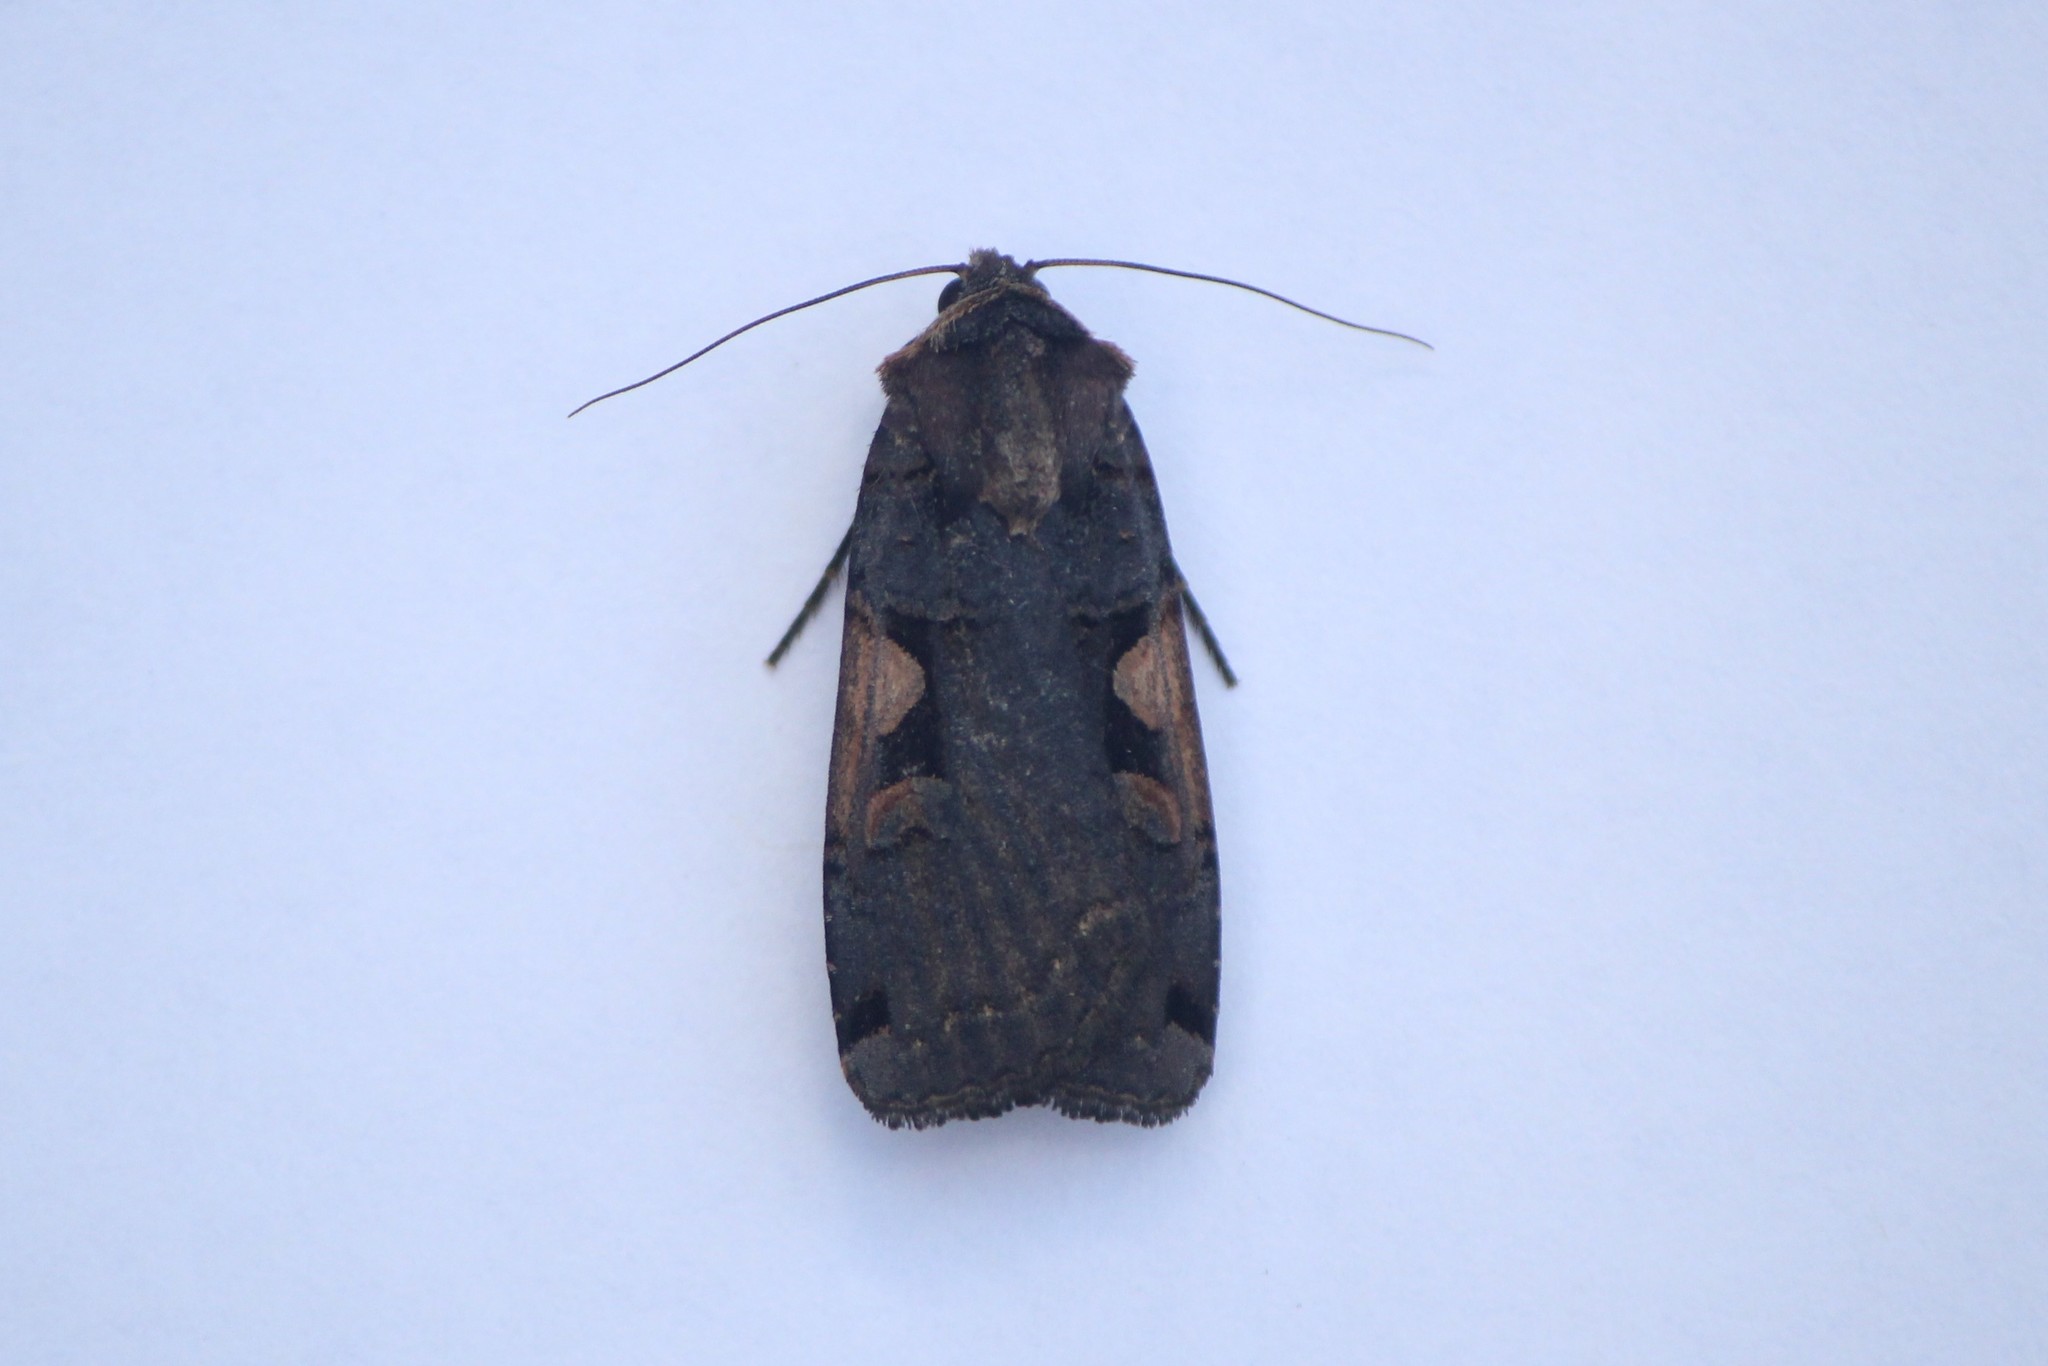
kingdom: Animalia
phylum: Arthropoda
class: Insecta
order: Lepidoptera
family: Noctuidae
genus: Xestia
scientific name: Xestia dolosa
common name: Cutworm moth
